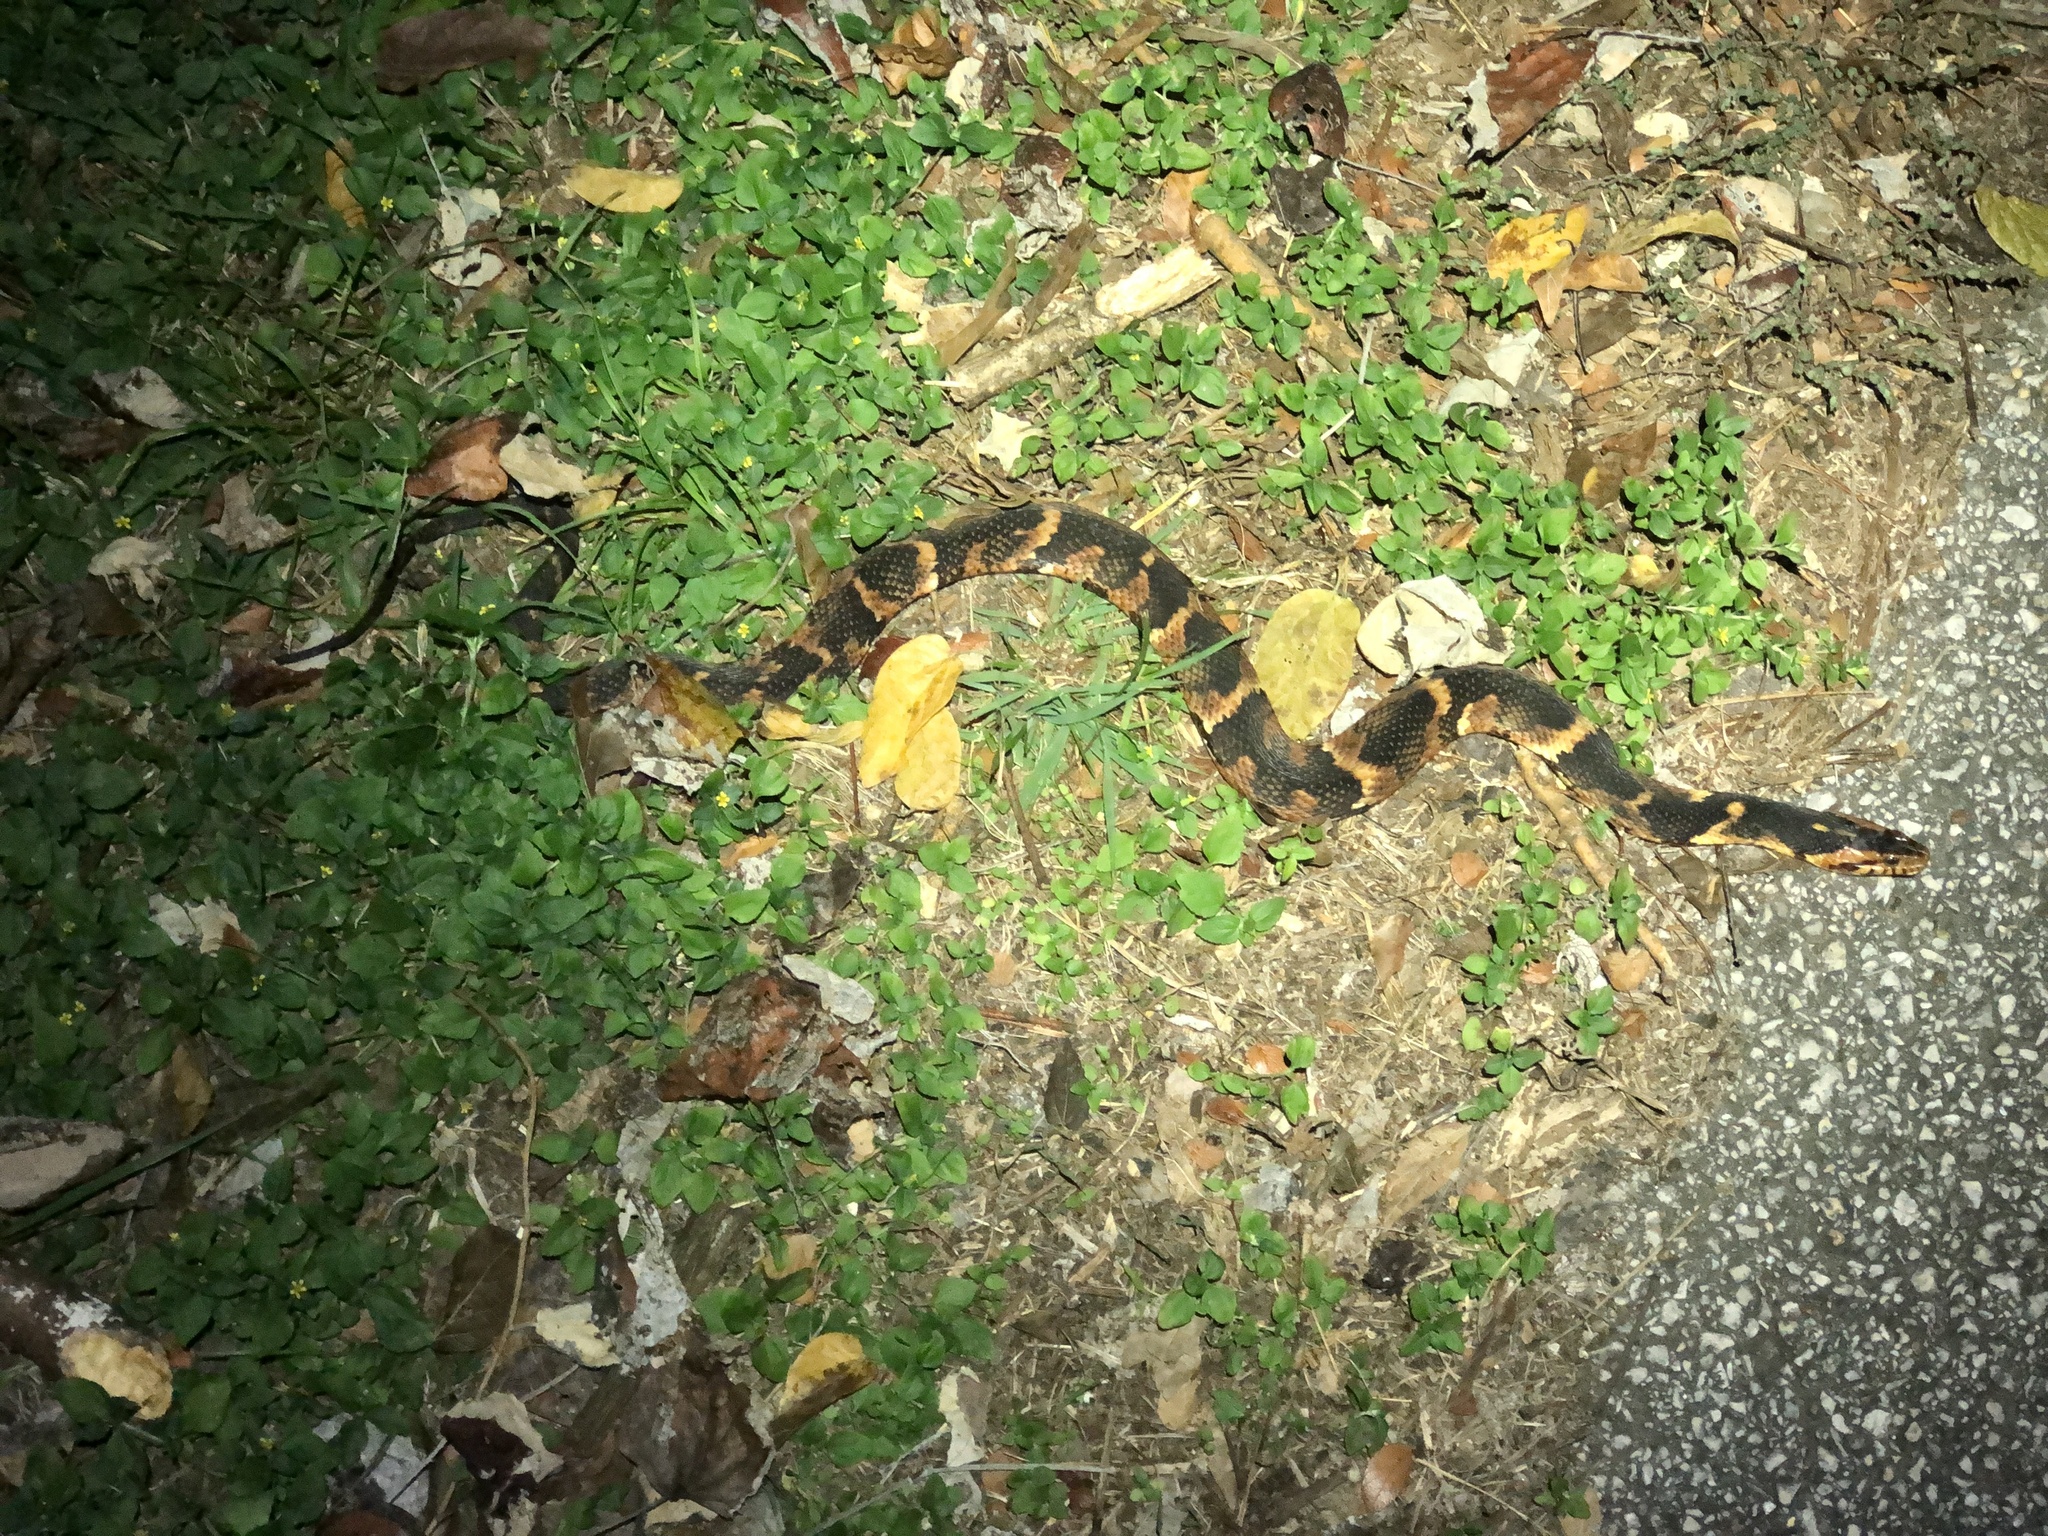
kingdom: Animalia
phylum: Chordata
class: Squamata
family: Colubridae
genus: Nerodia
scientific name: Nerodia fasciata
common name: Southern water snake
